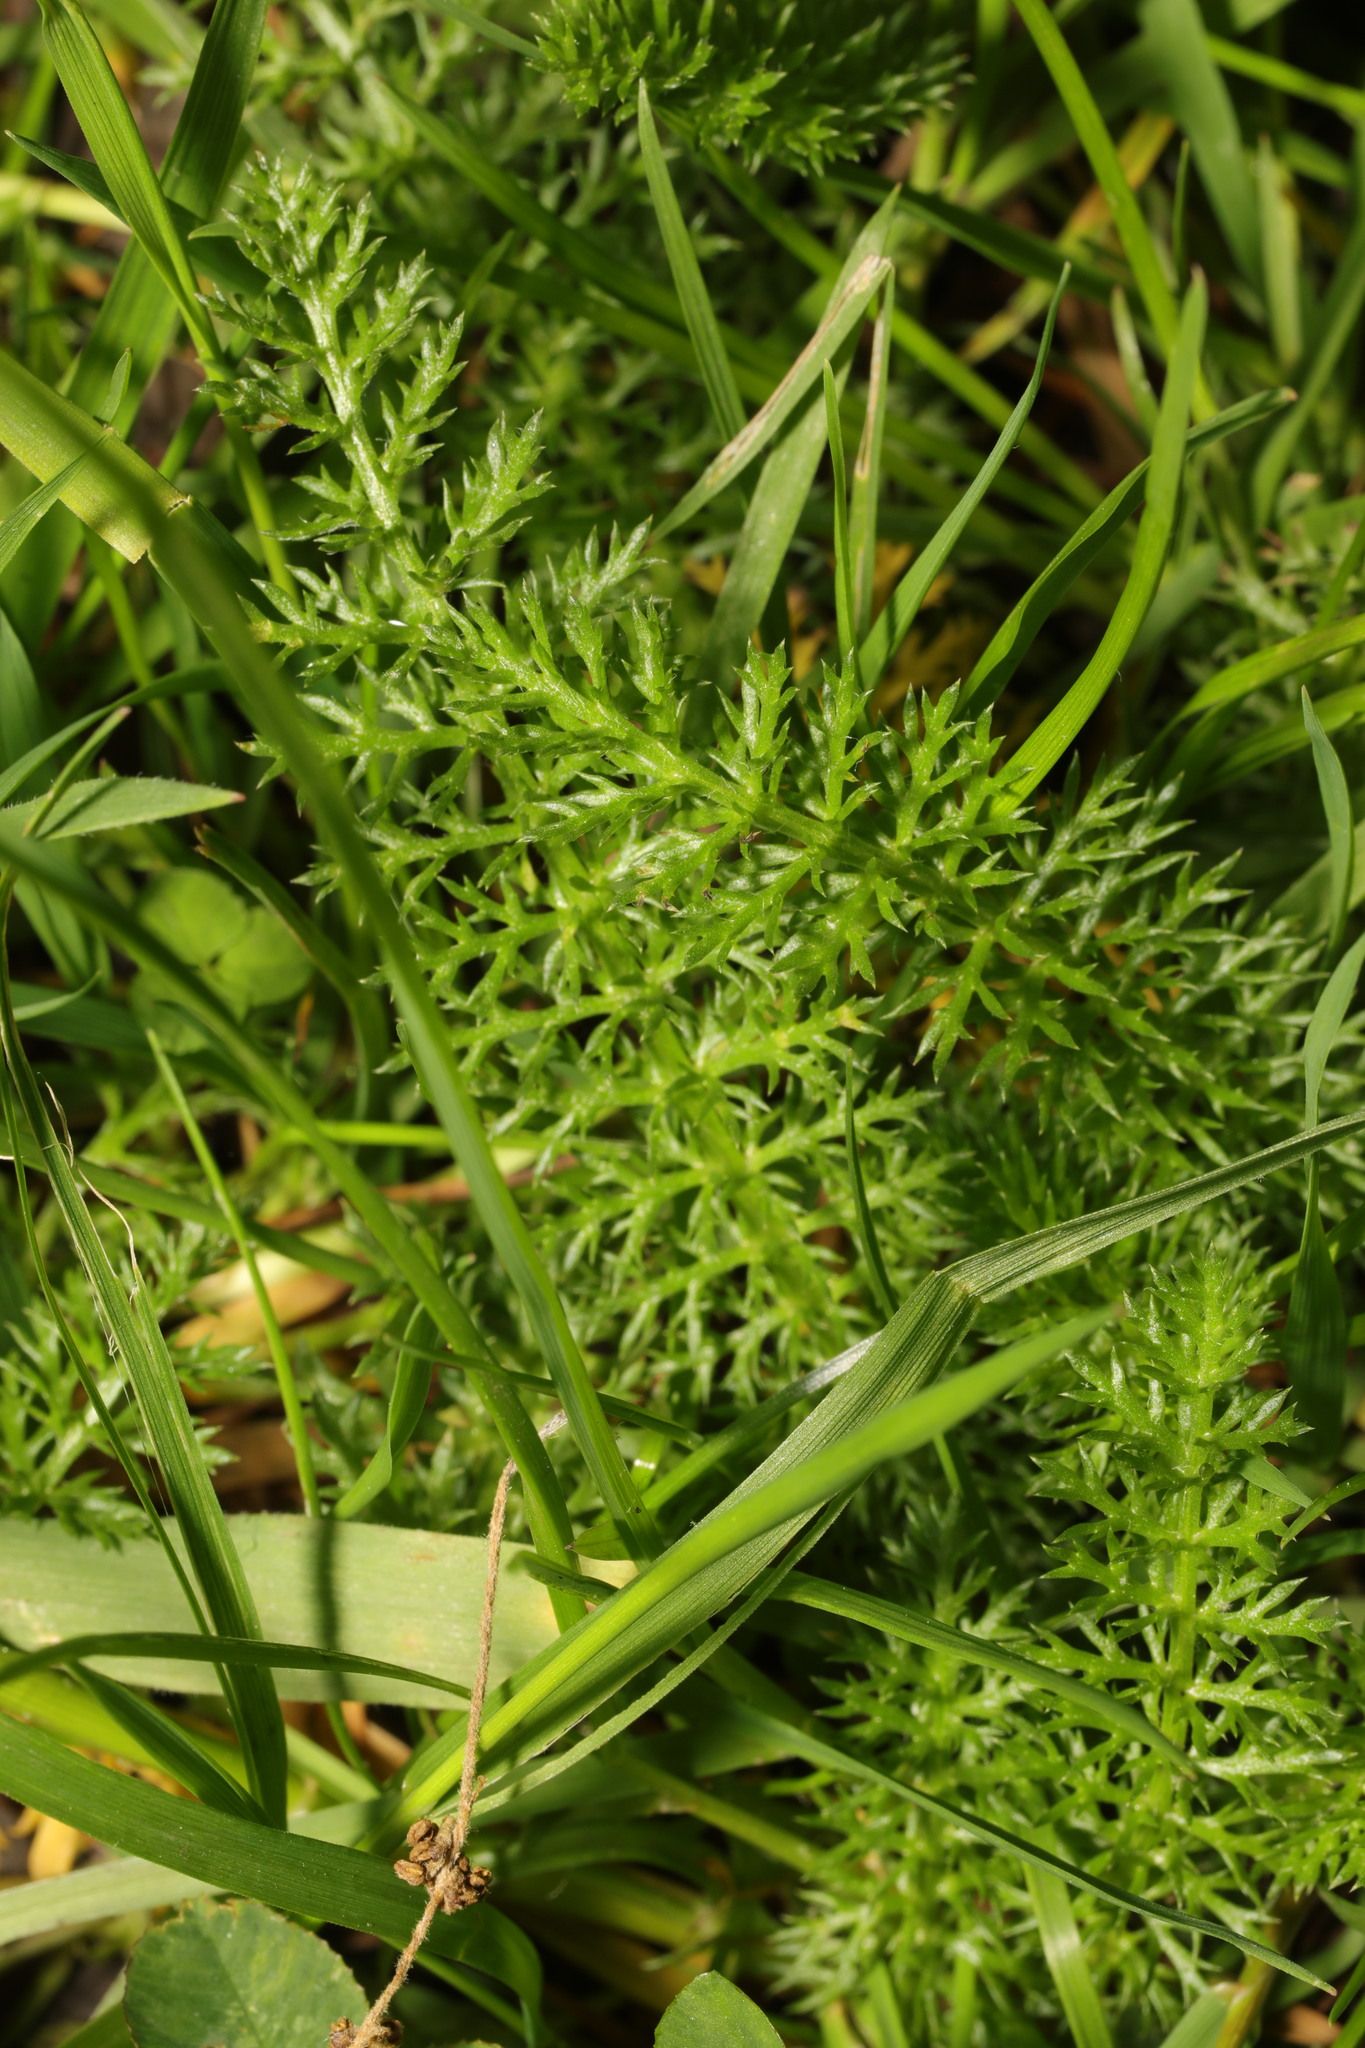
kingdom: Plantae
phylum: Tracheophyta
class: Magnoliopsida
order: Asterales
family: Asteraceae
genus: Achillea
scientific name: Achillea millefolium
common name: Yarrow
